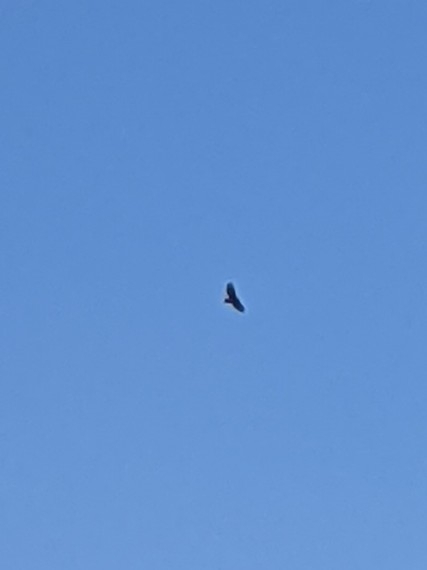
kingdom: Animalia
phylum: Chordata
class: Aves
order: Accipitriformes
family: Accipitridae
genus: Buteo
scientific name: Buteo jamaicensis
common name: Red-tailed hawk
